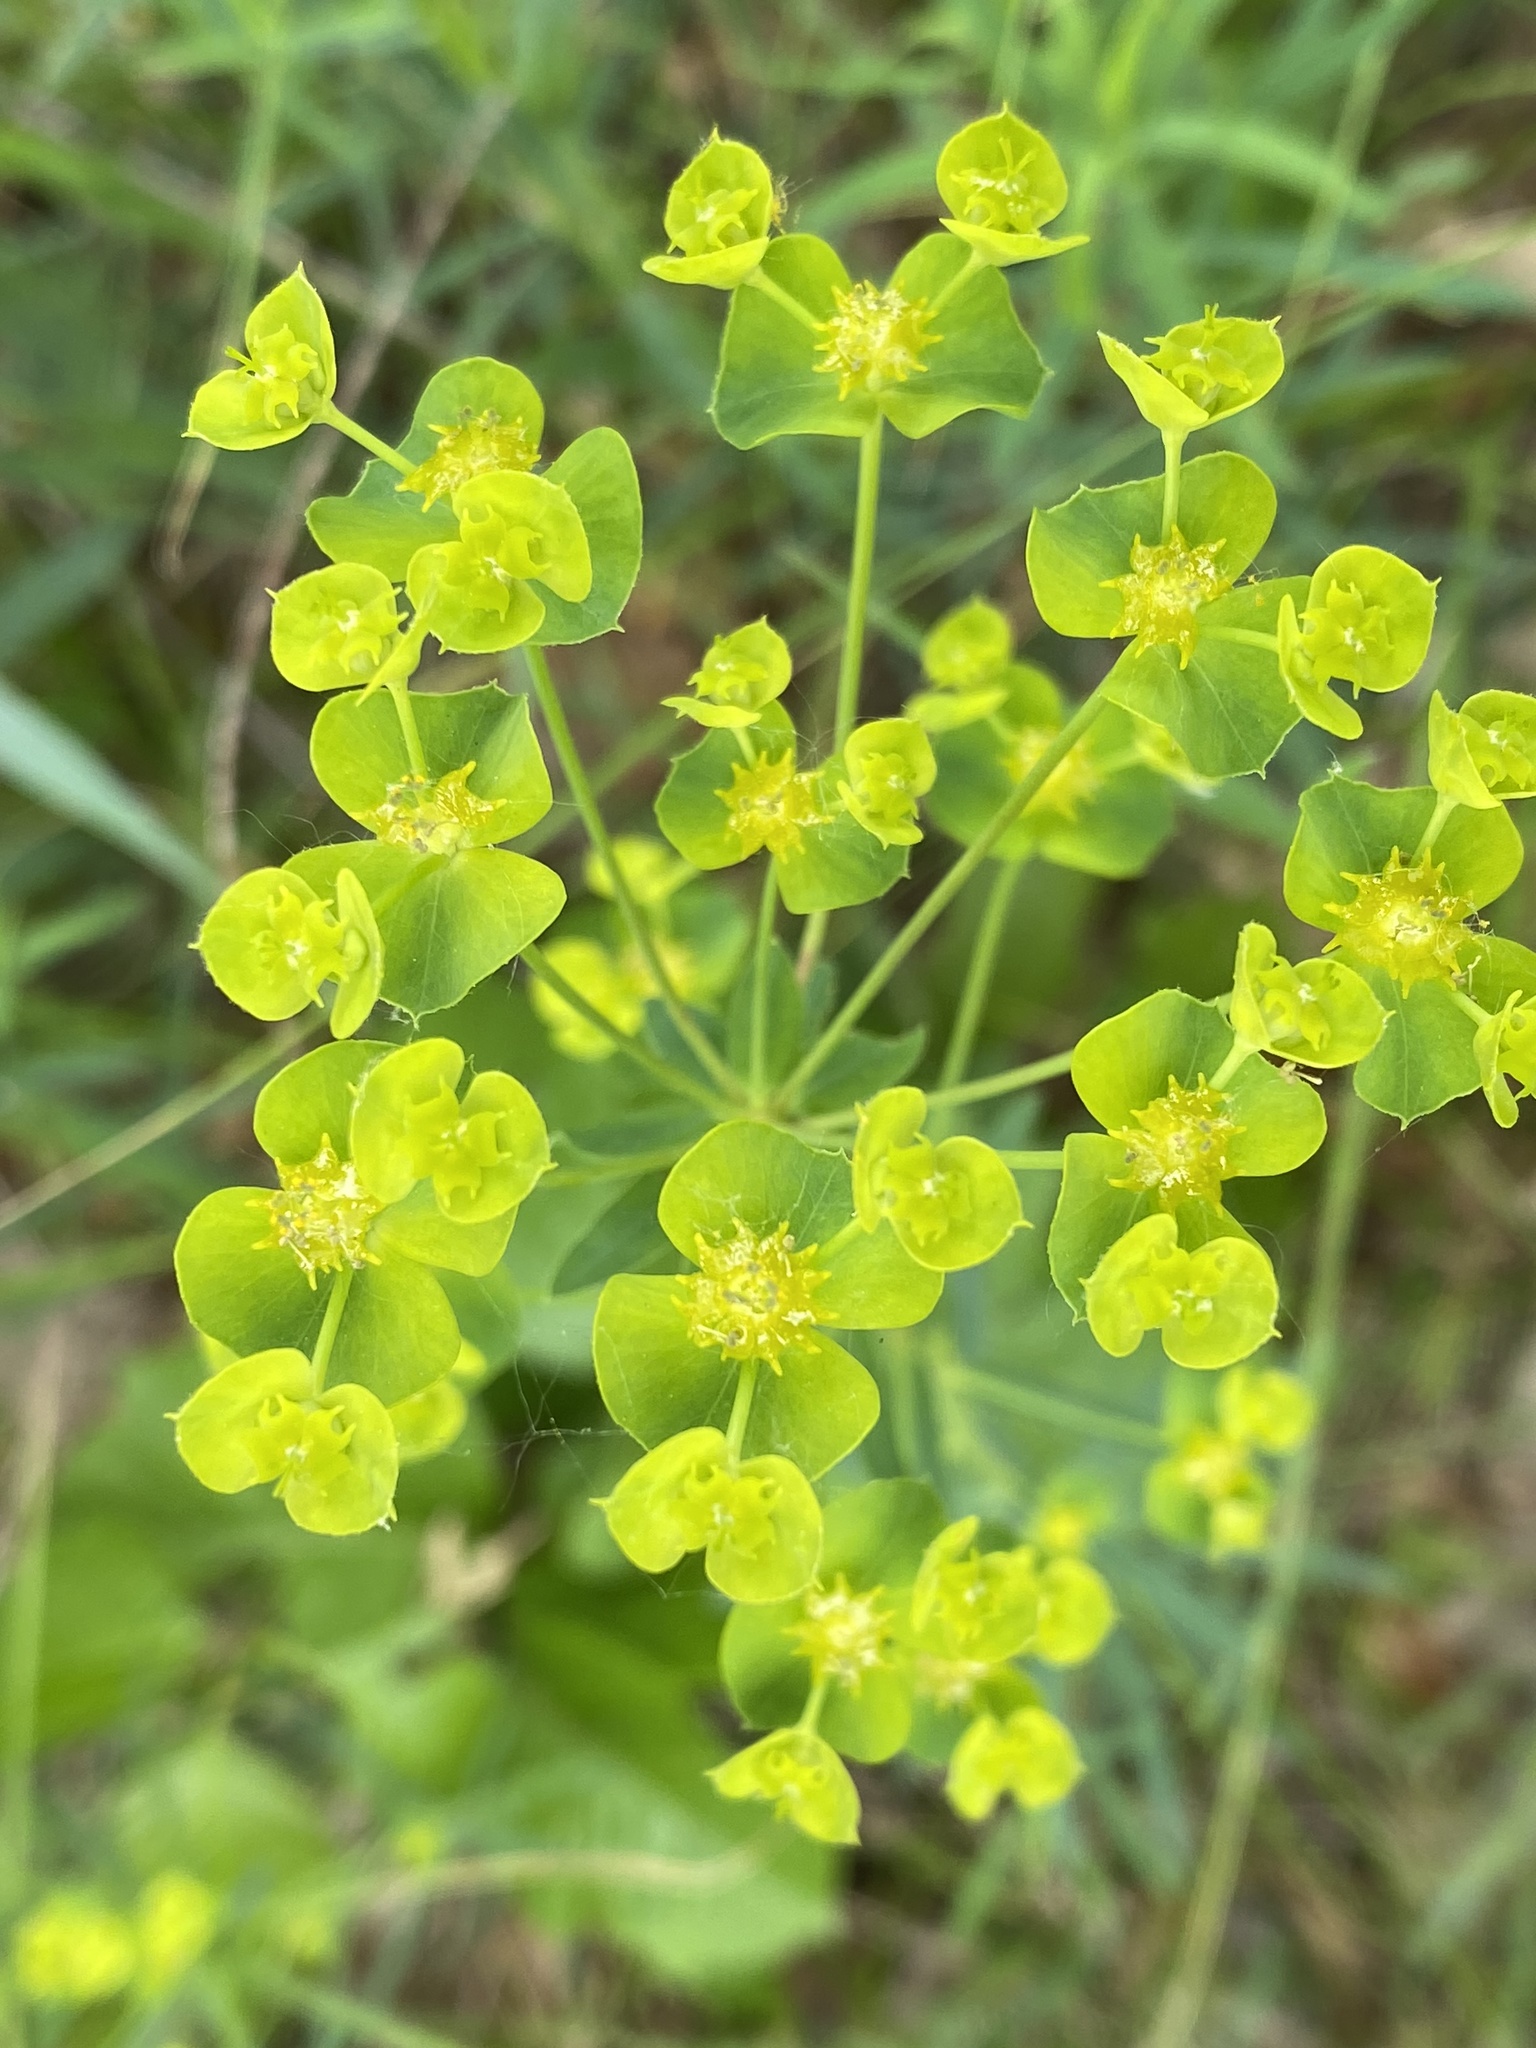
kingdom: Plantae
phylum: Tracheophyta
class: Magnoliopsida
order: Malpighiales
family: Euphorbiaceae
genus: Euphorbia
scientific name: Euphorbia virgata
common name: Leafy spurge
